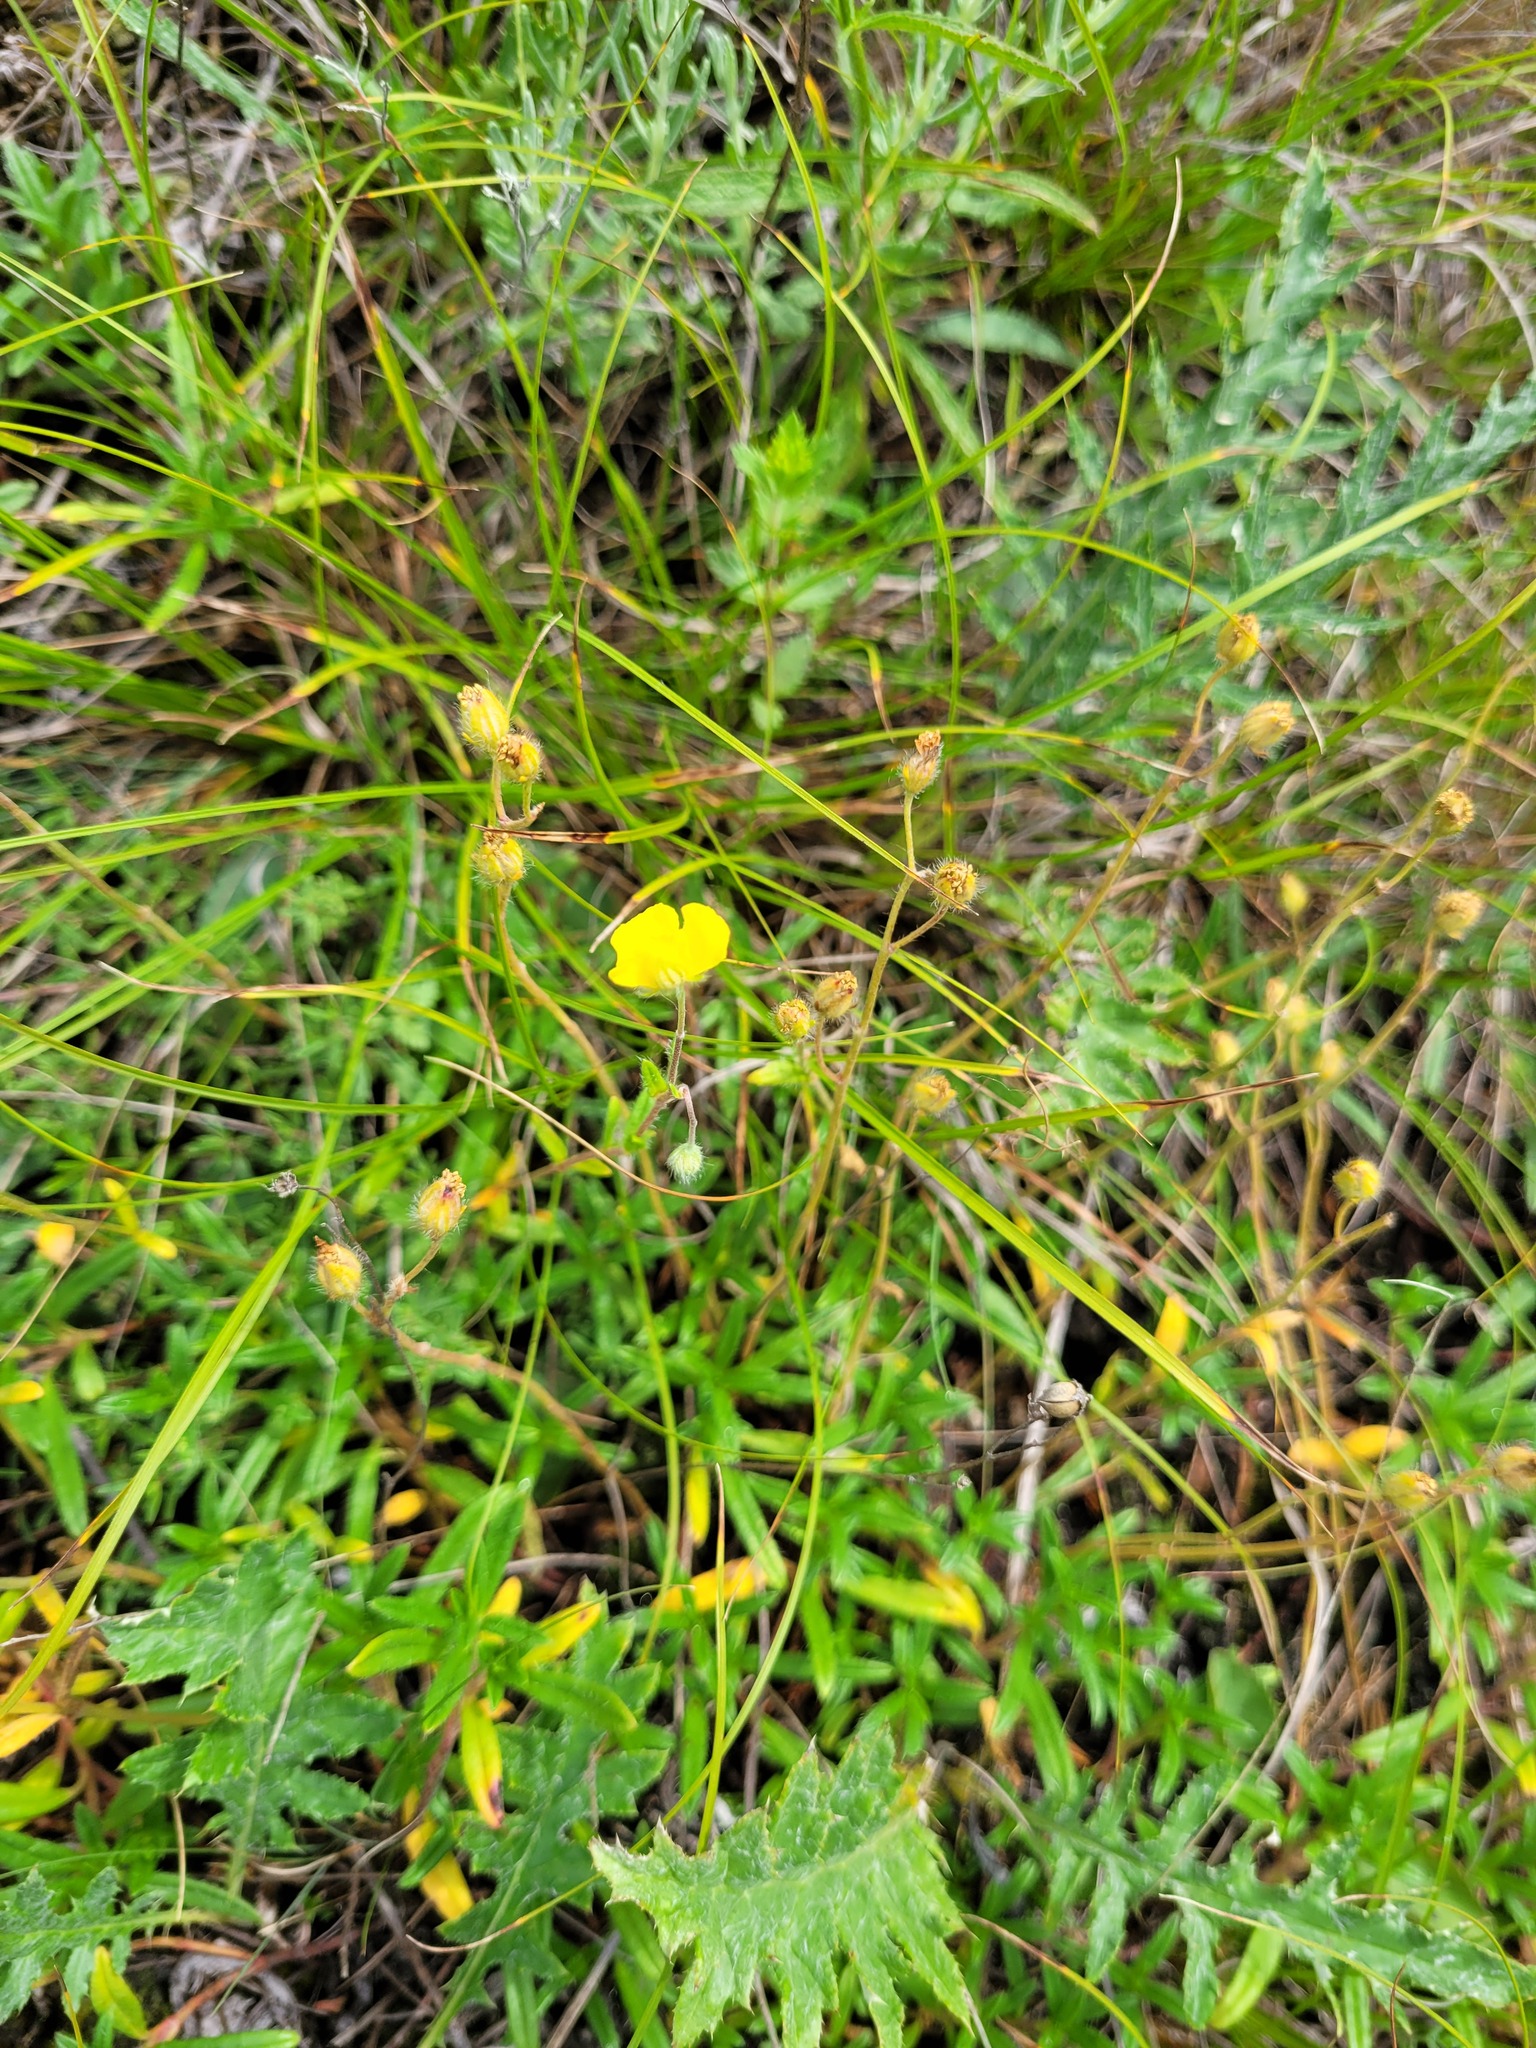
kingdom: Plantae
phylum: Tracheophyta
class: Magnoliopsida
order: Malvales
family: Cistaceae
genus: Helianthemum
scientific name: Helianthemum rupifragum
